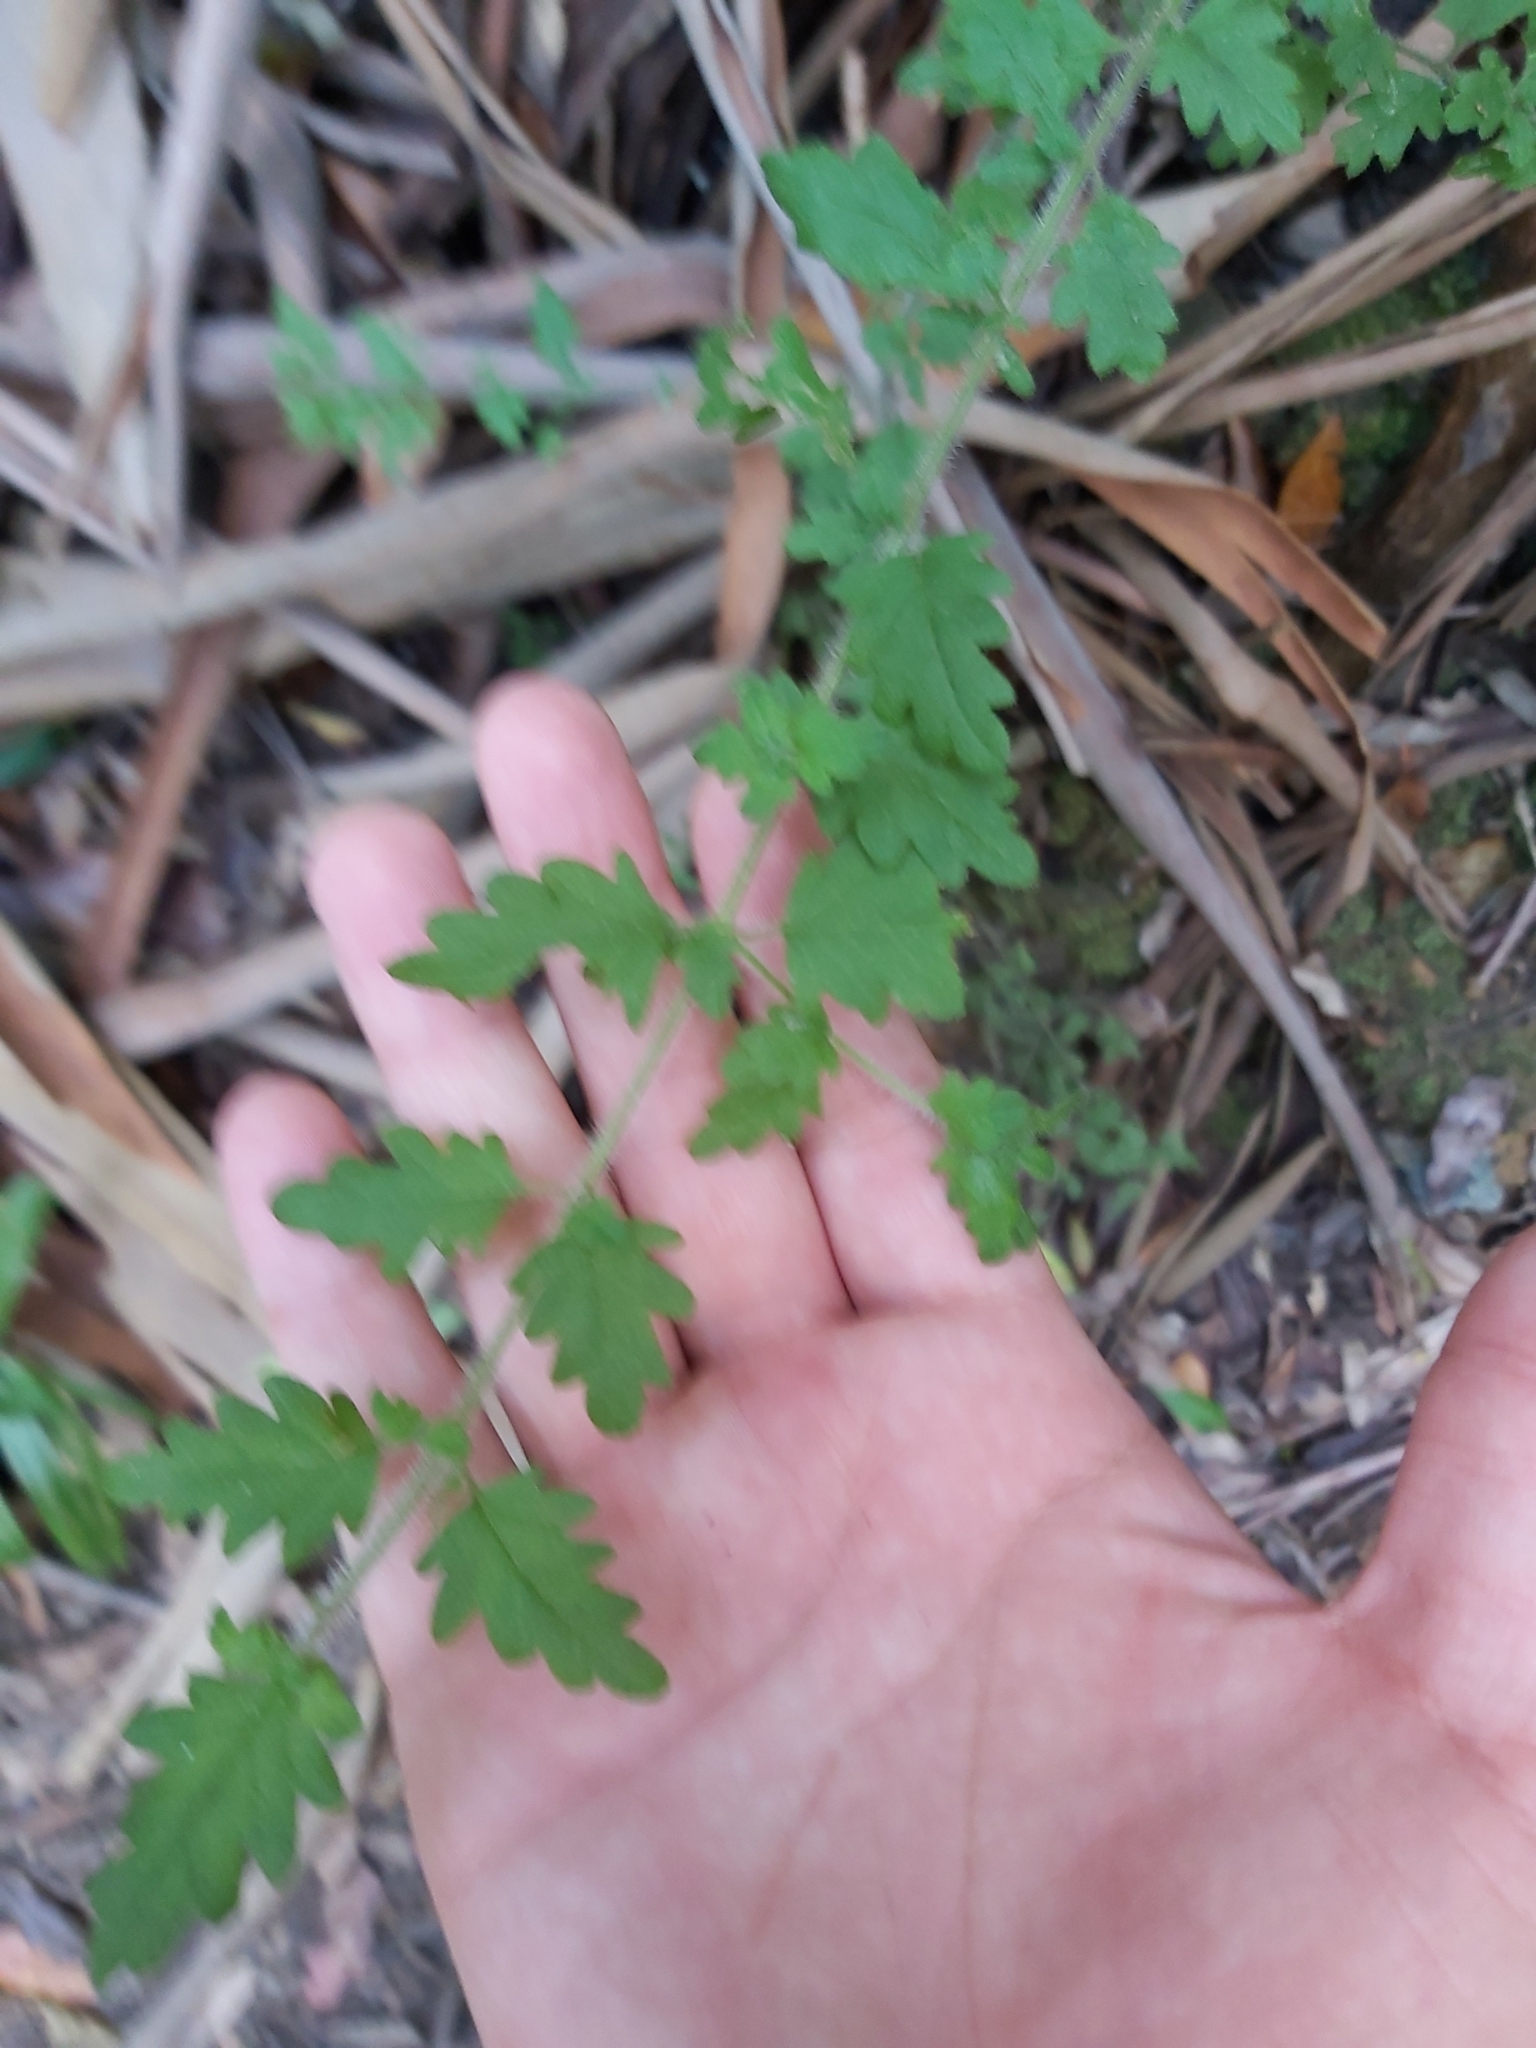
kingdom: Plantae
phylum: Tracheophyta
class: Magnoliopsida
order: Lamiales
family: Lamiaceae
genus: Prostanthera
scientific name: Prostanthera askania
